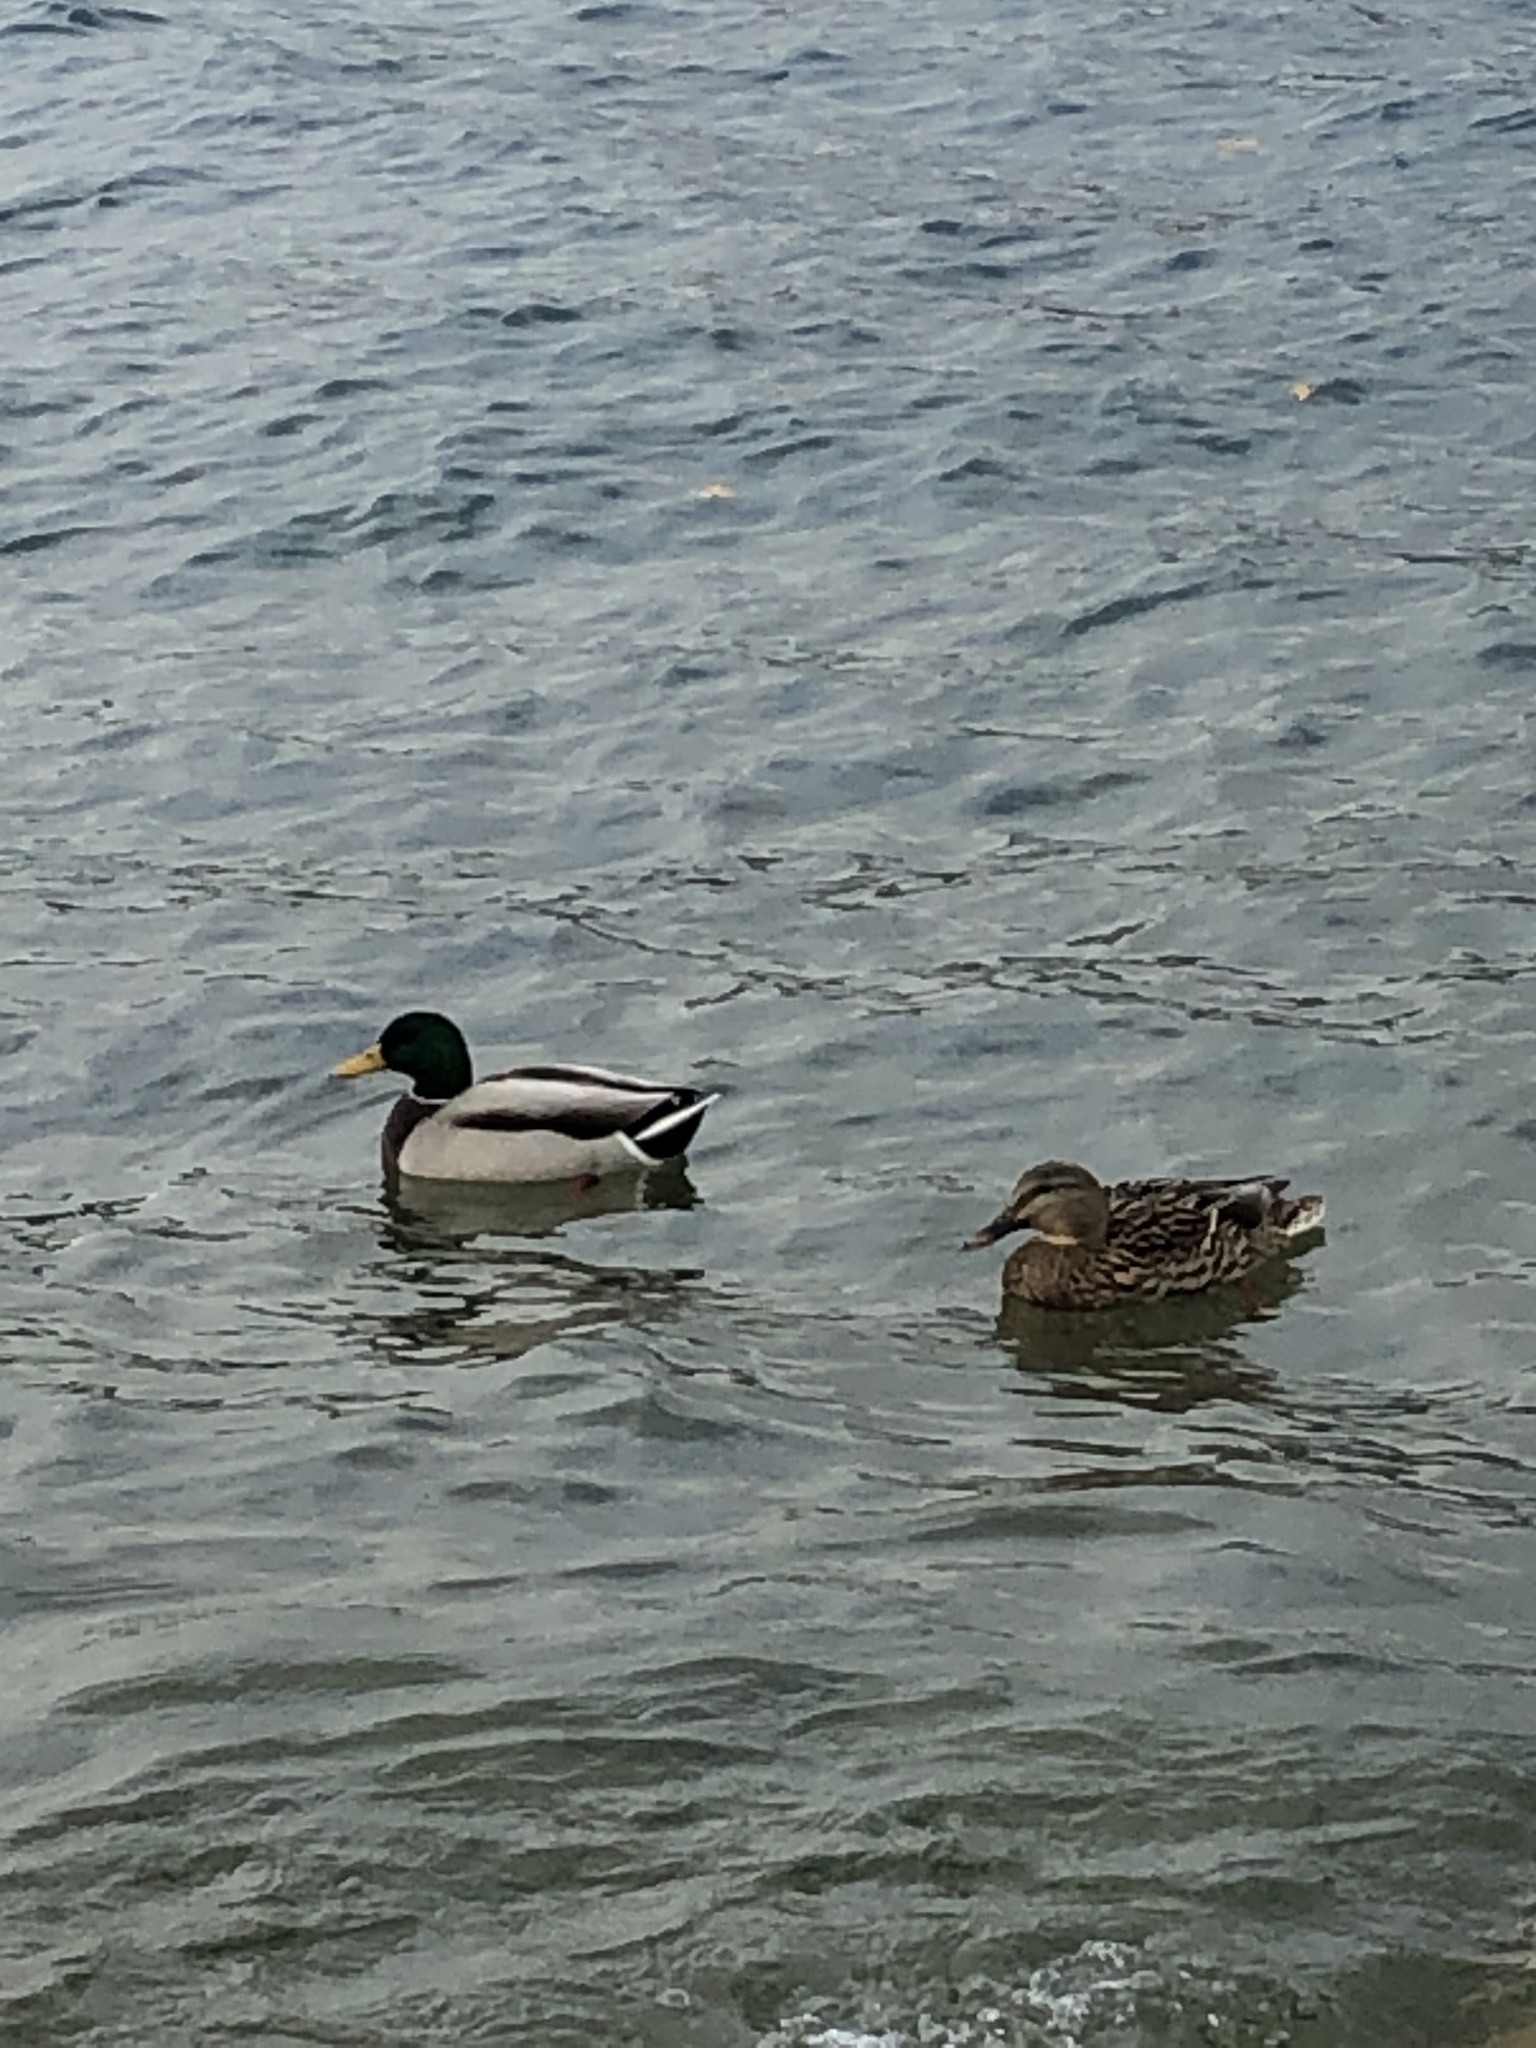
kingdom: Animalia
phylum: Chordata
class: Aves
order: Anseriformes
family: Anatidae
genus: Anas
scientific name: Anas platyrhynchos
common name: Mallard
